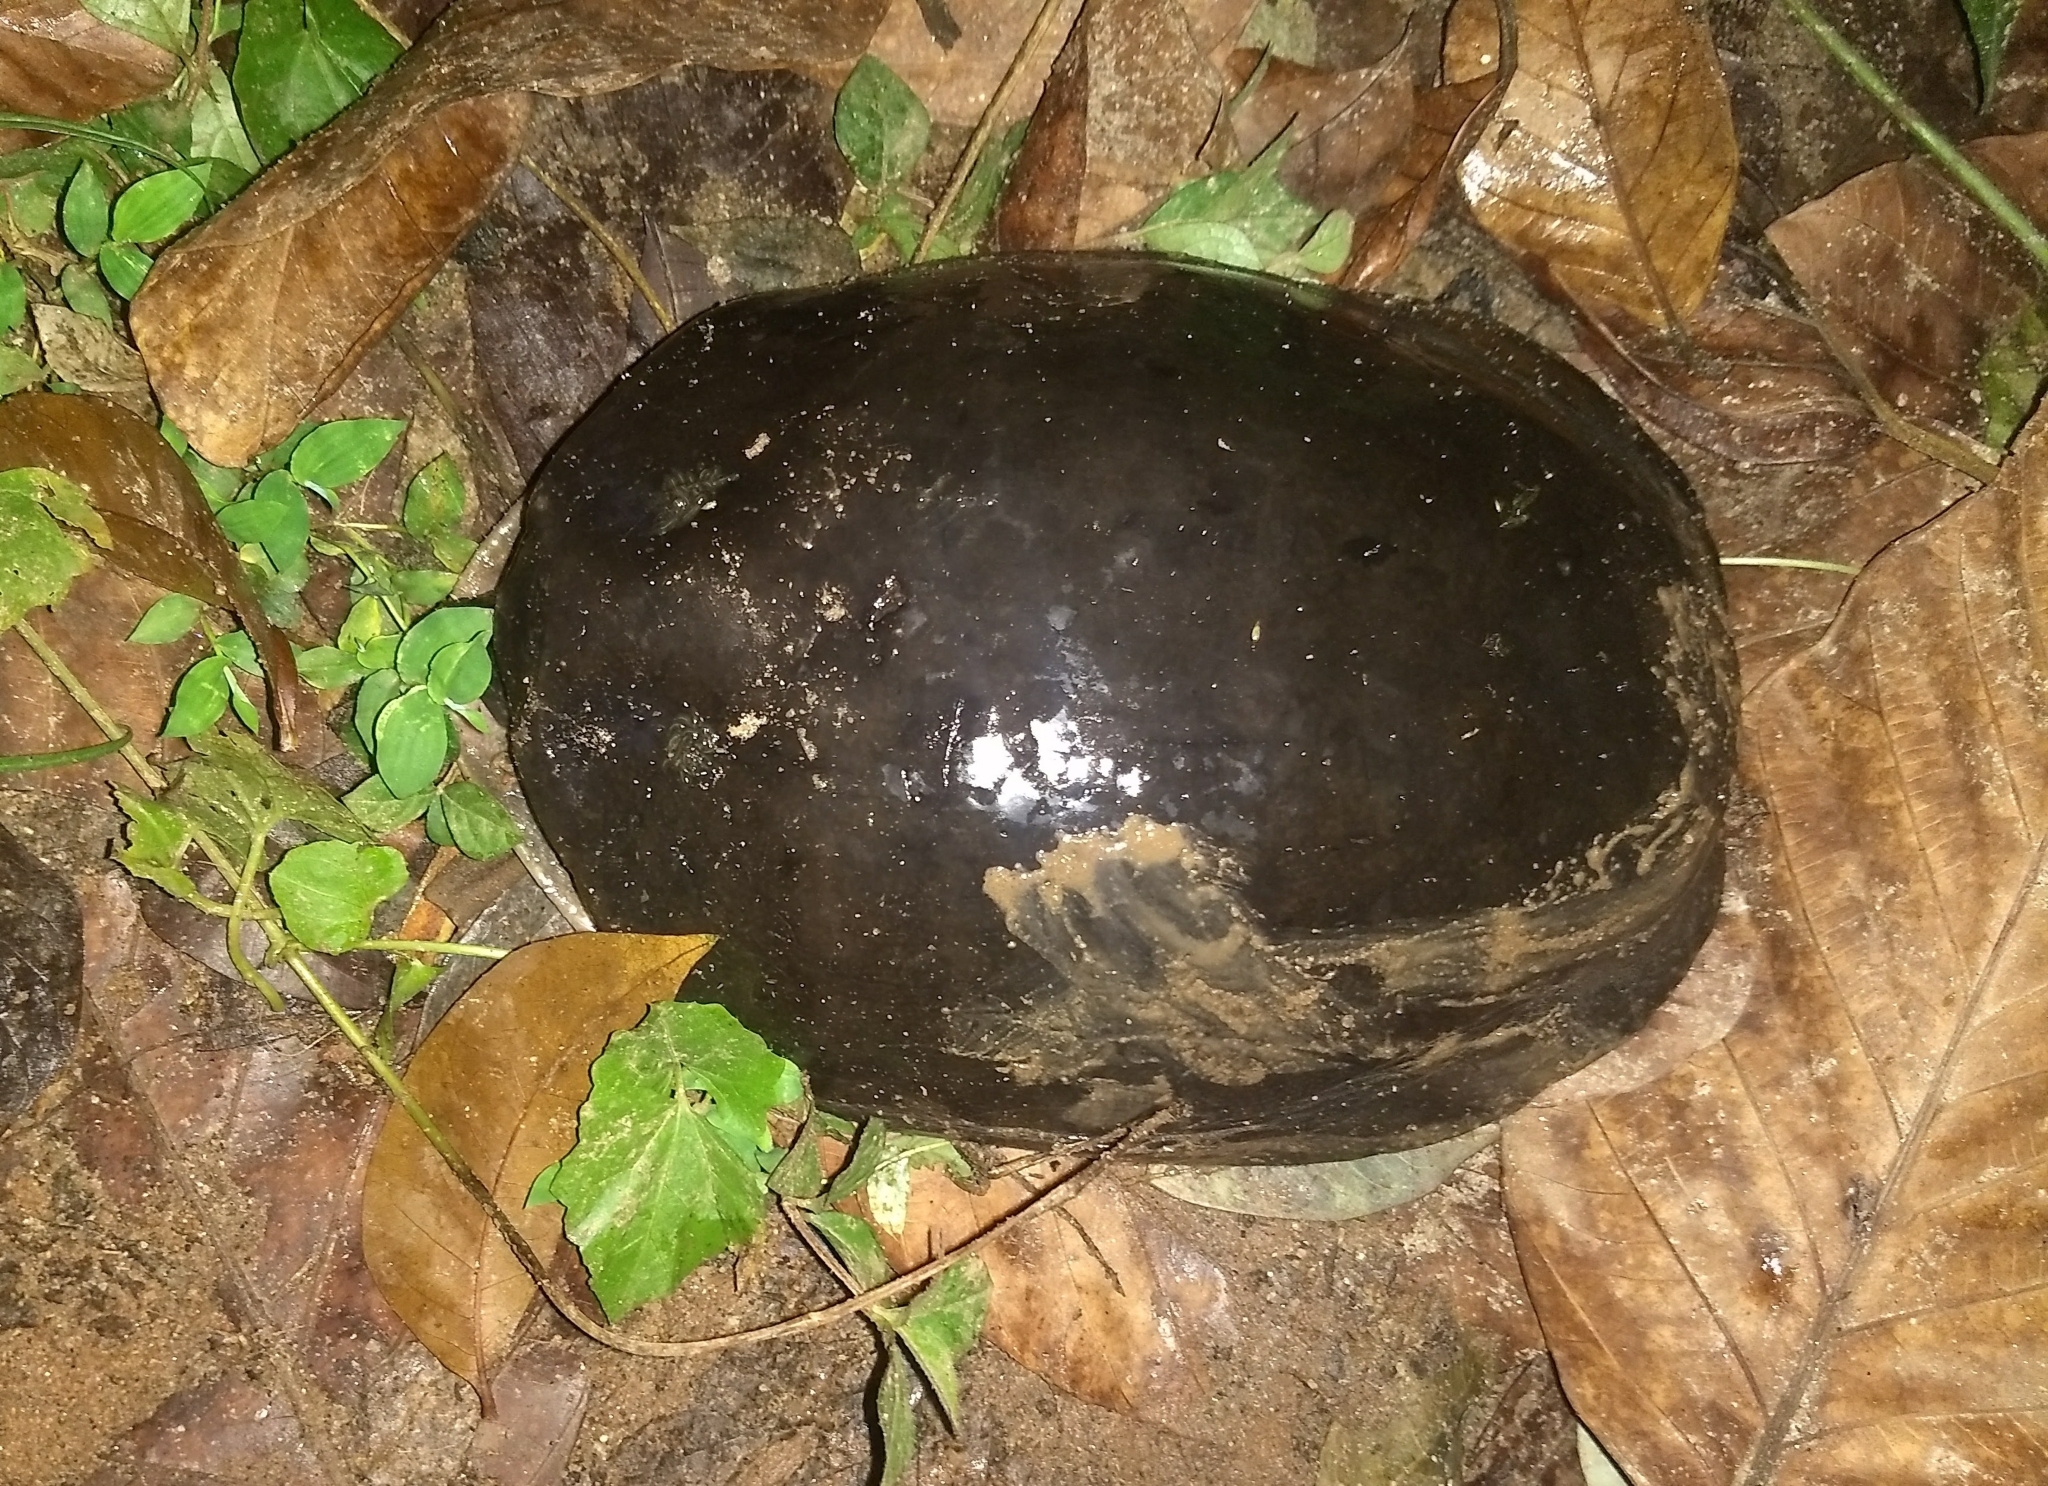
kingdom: Animalia
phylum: Chordata
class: Testudines
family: Trionychidae
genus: Lissemys
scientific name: Lissemys punctata
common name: Indian flap-shelled turtle
